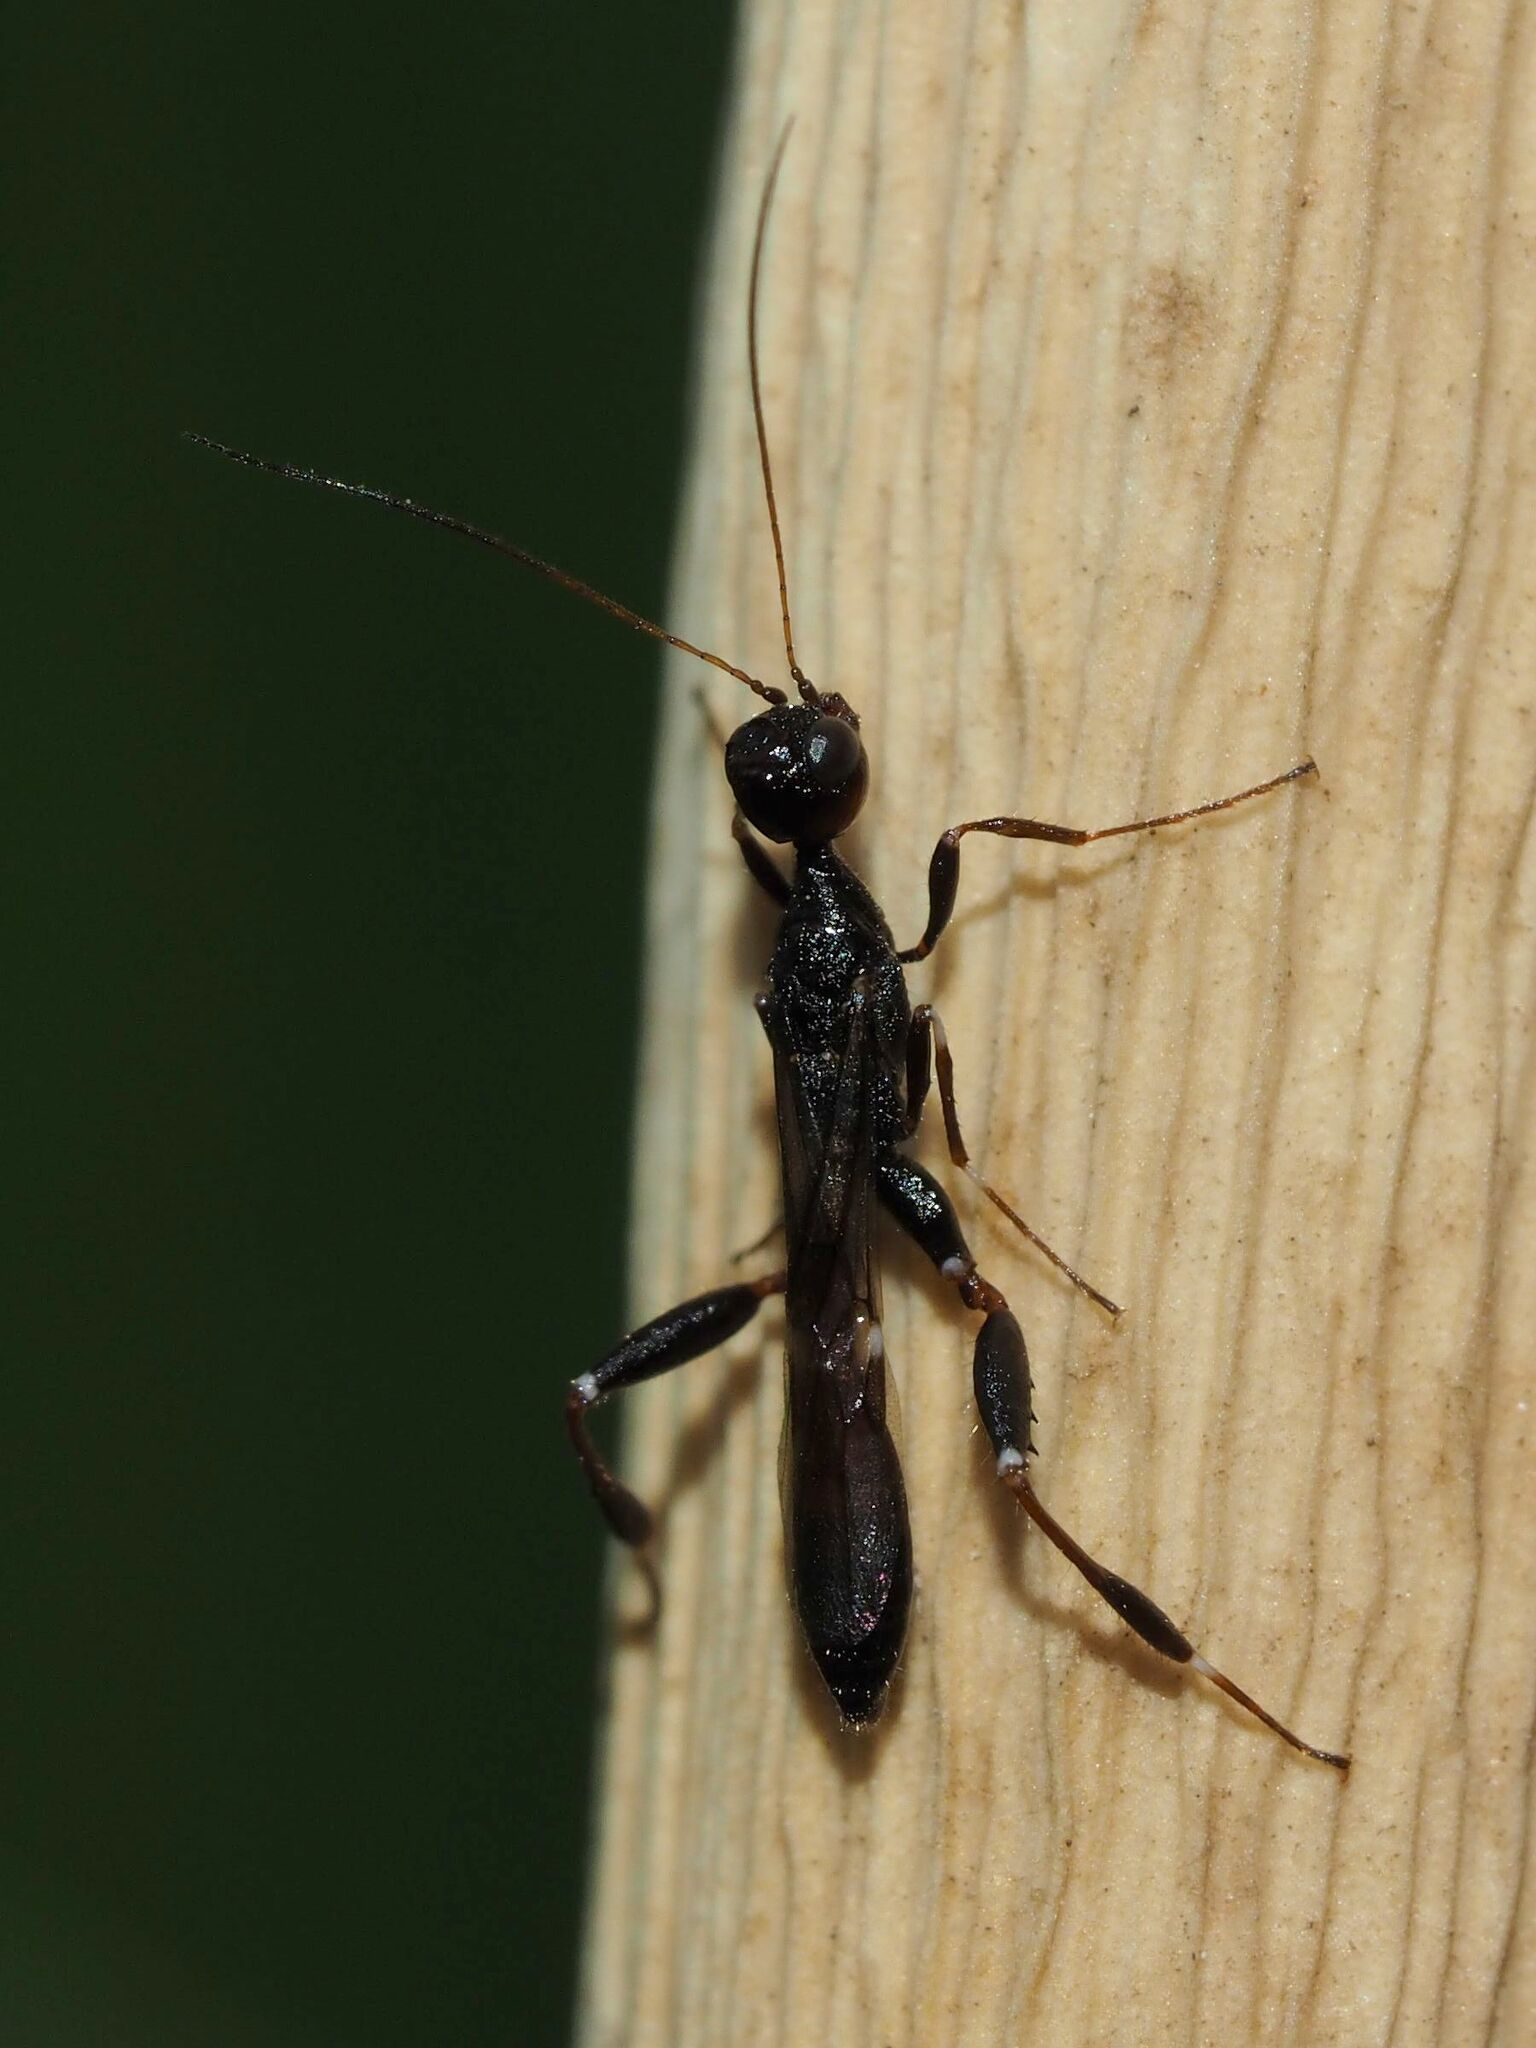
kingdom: Animalia
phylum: Arthropoda
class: Insecta
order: Hymenoptera
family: Stephanidae
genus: Stephanus
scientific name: Stephanus serrator
